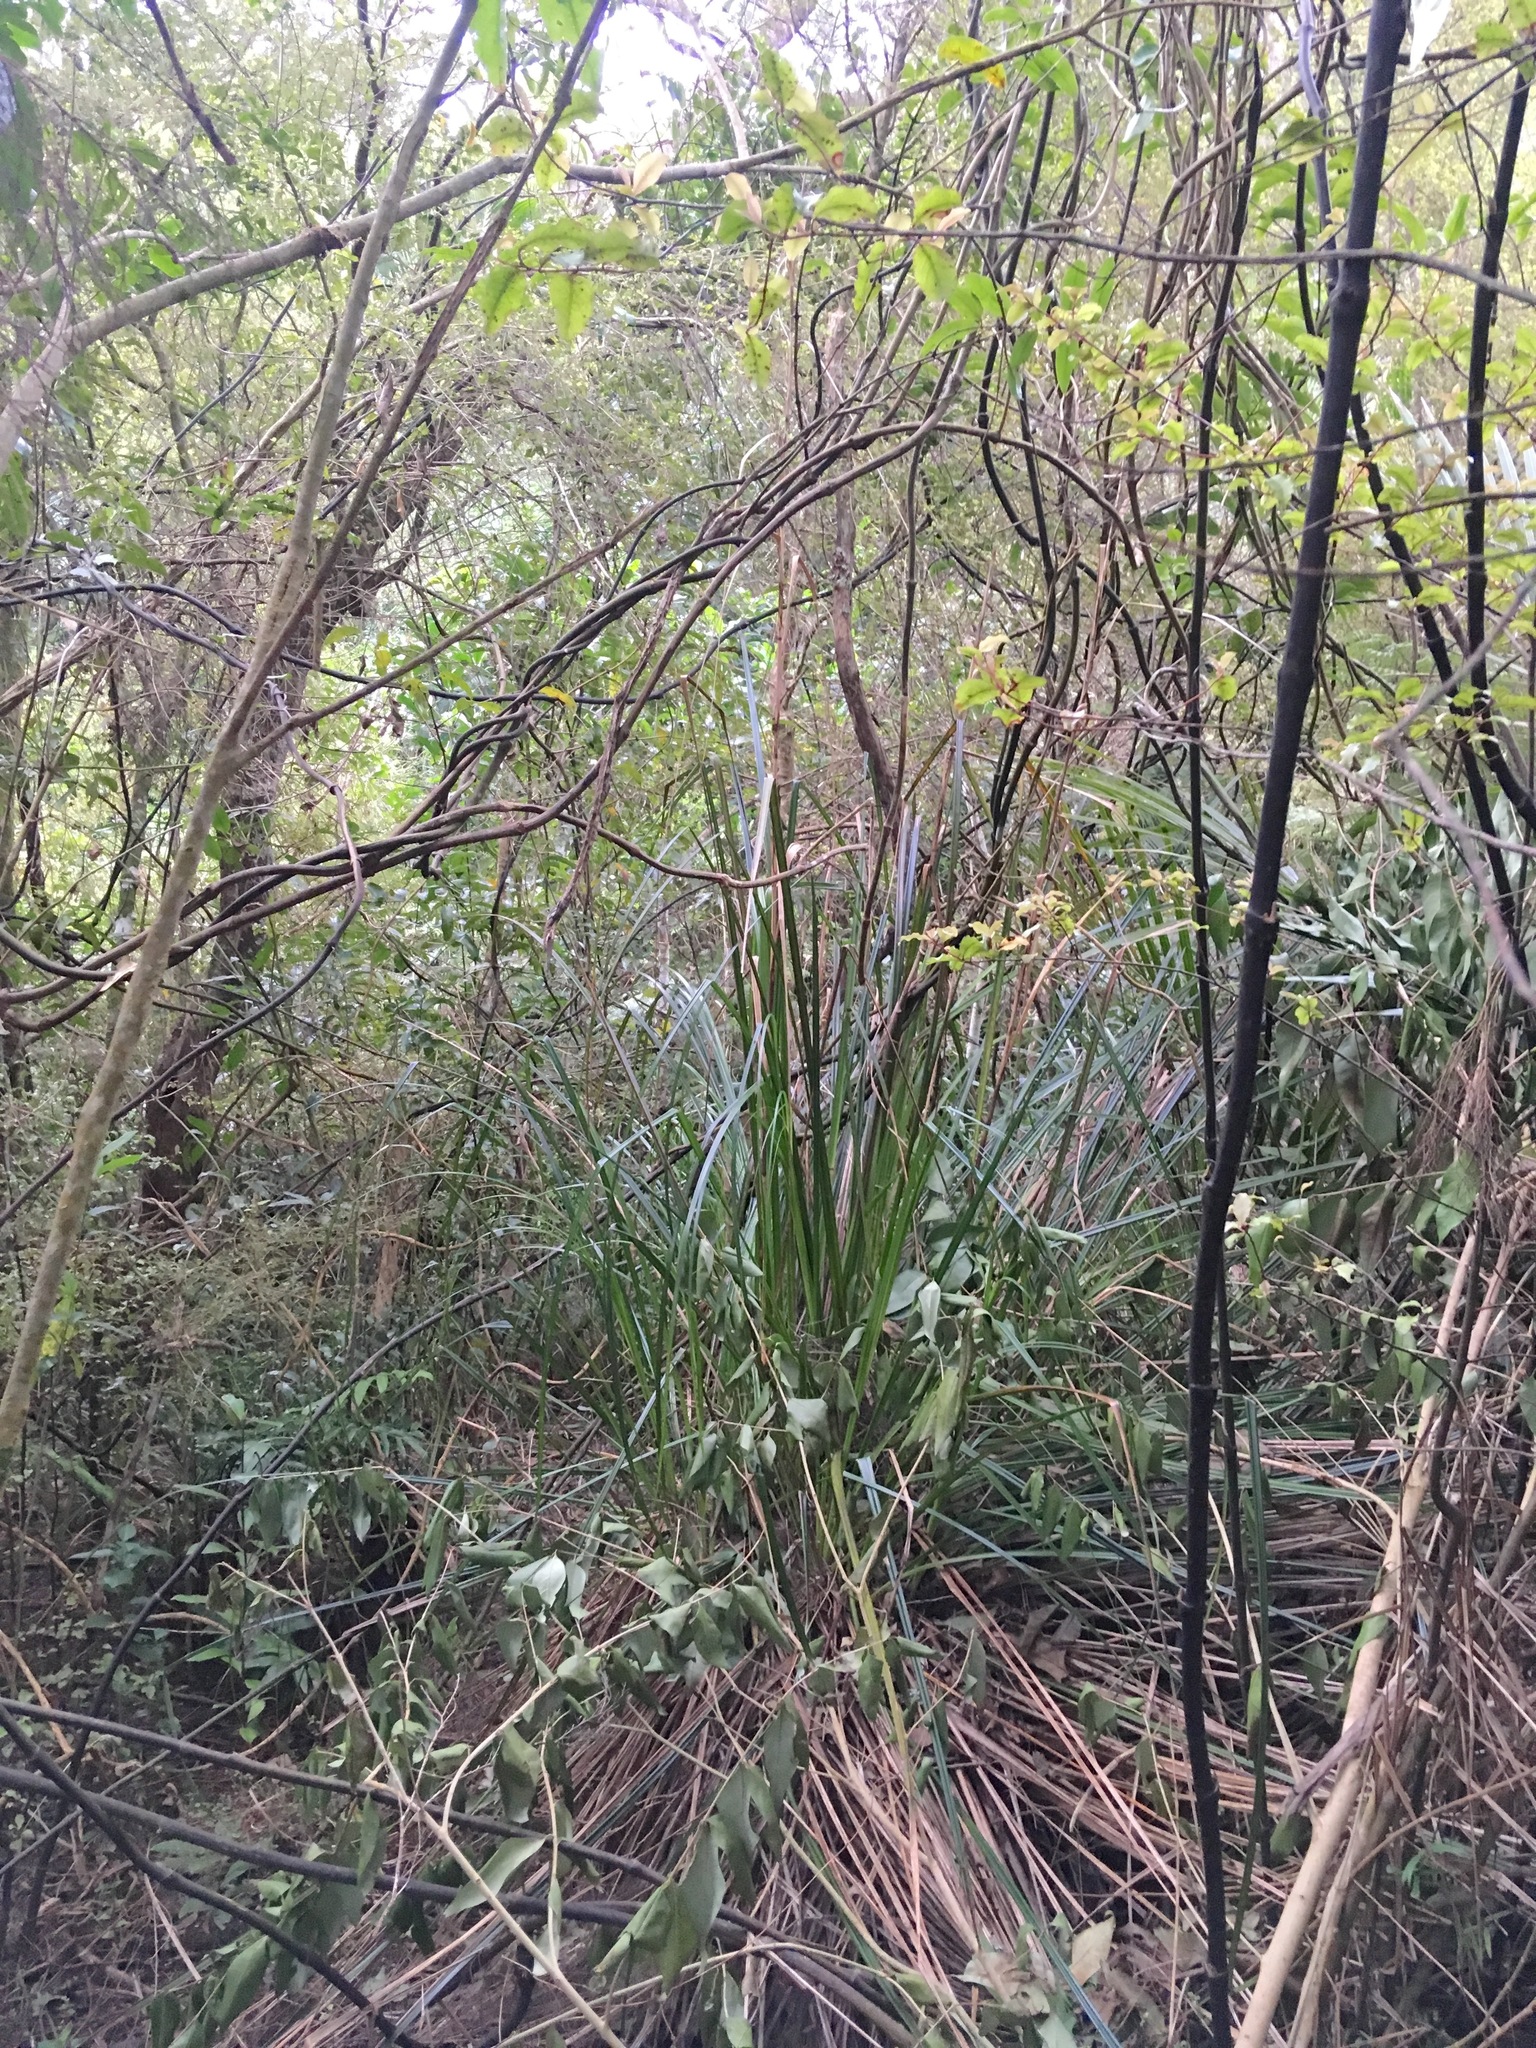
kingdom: Plantae
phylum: Tracheophyta
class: Liliopsida
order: Poales
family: Cyperaceae
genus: Gahnia
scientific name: Gahnia xanthocarpa
